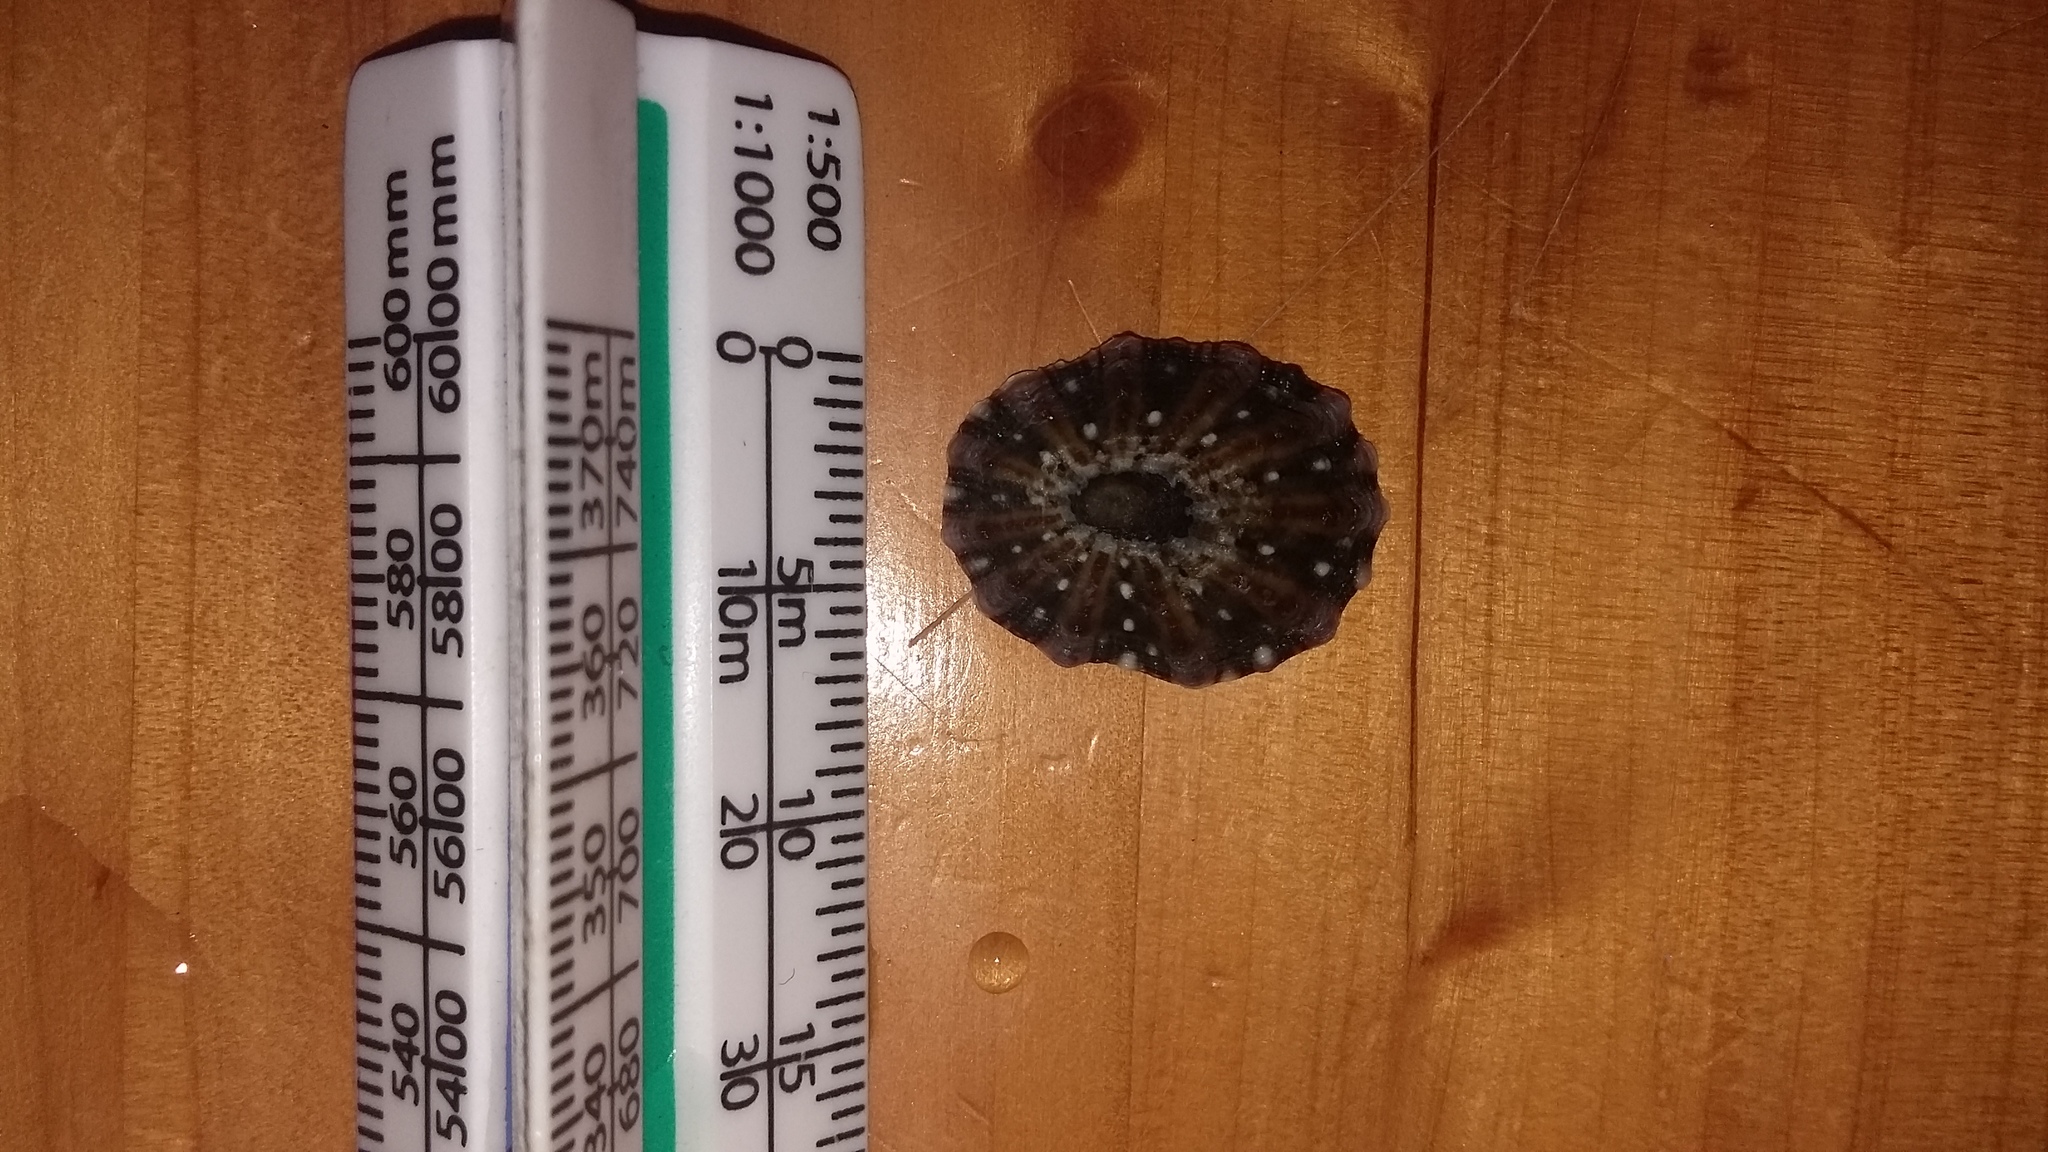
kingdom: Animalia
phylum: Mollusca
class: Gastropoda
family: Nacellidae
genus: Cellana
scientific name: Cellana ornata
